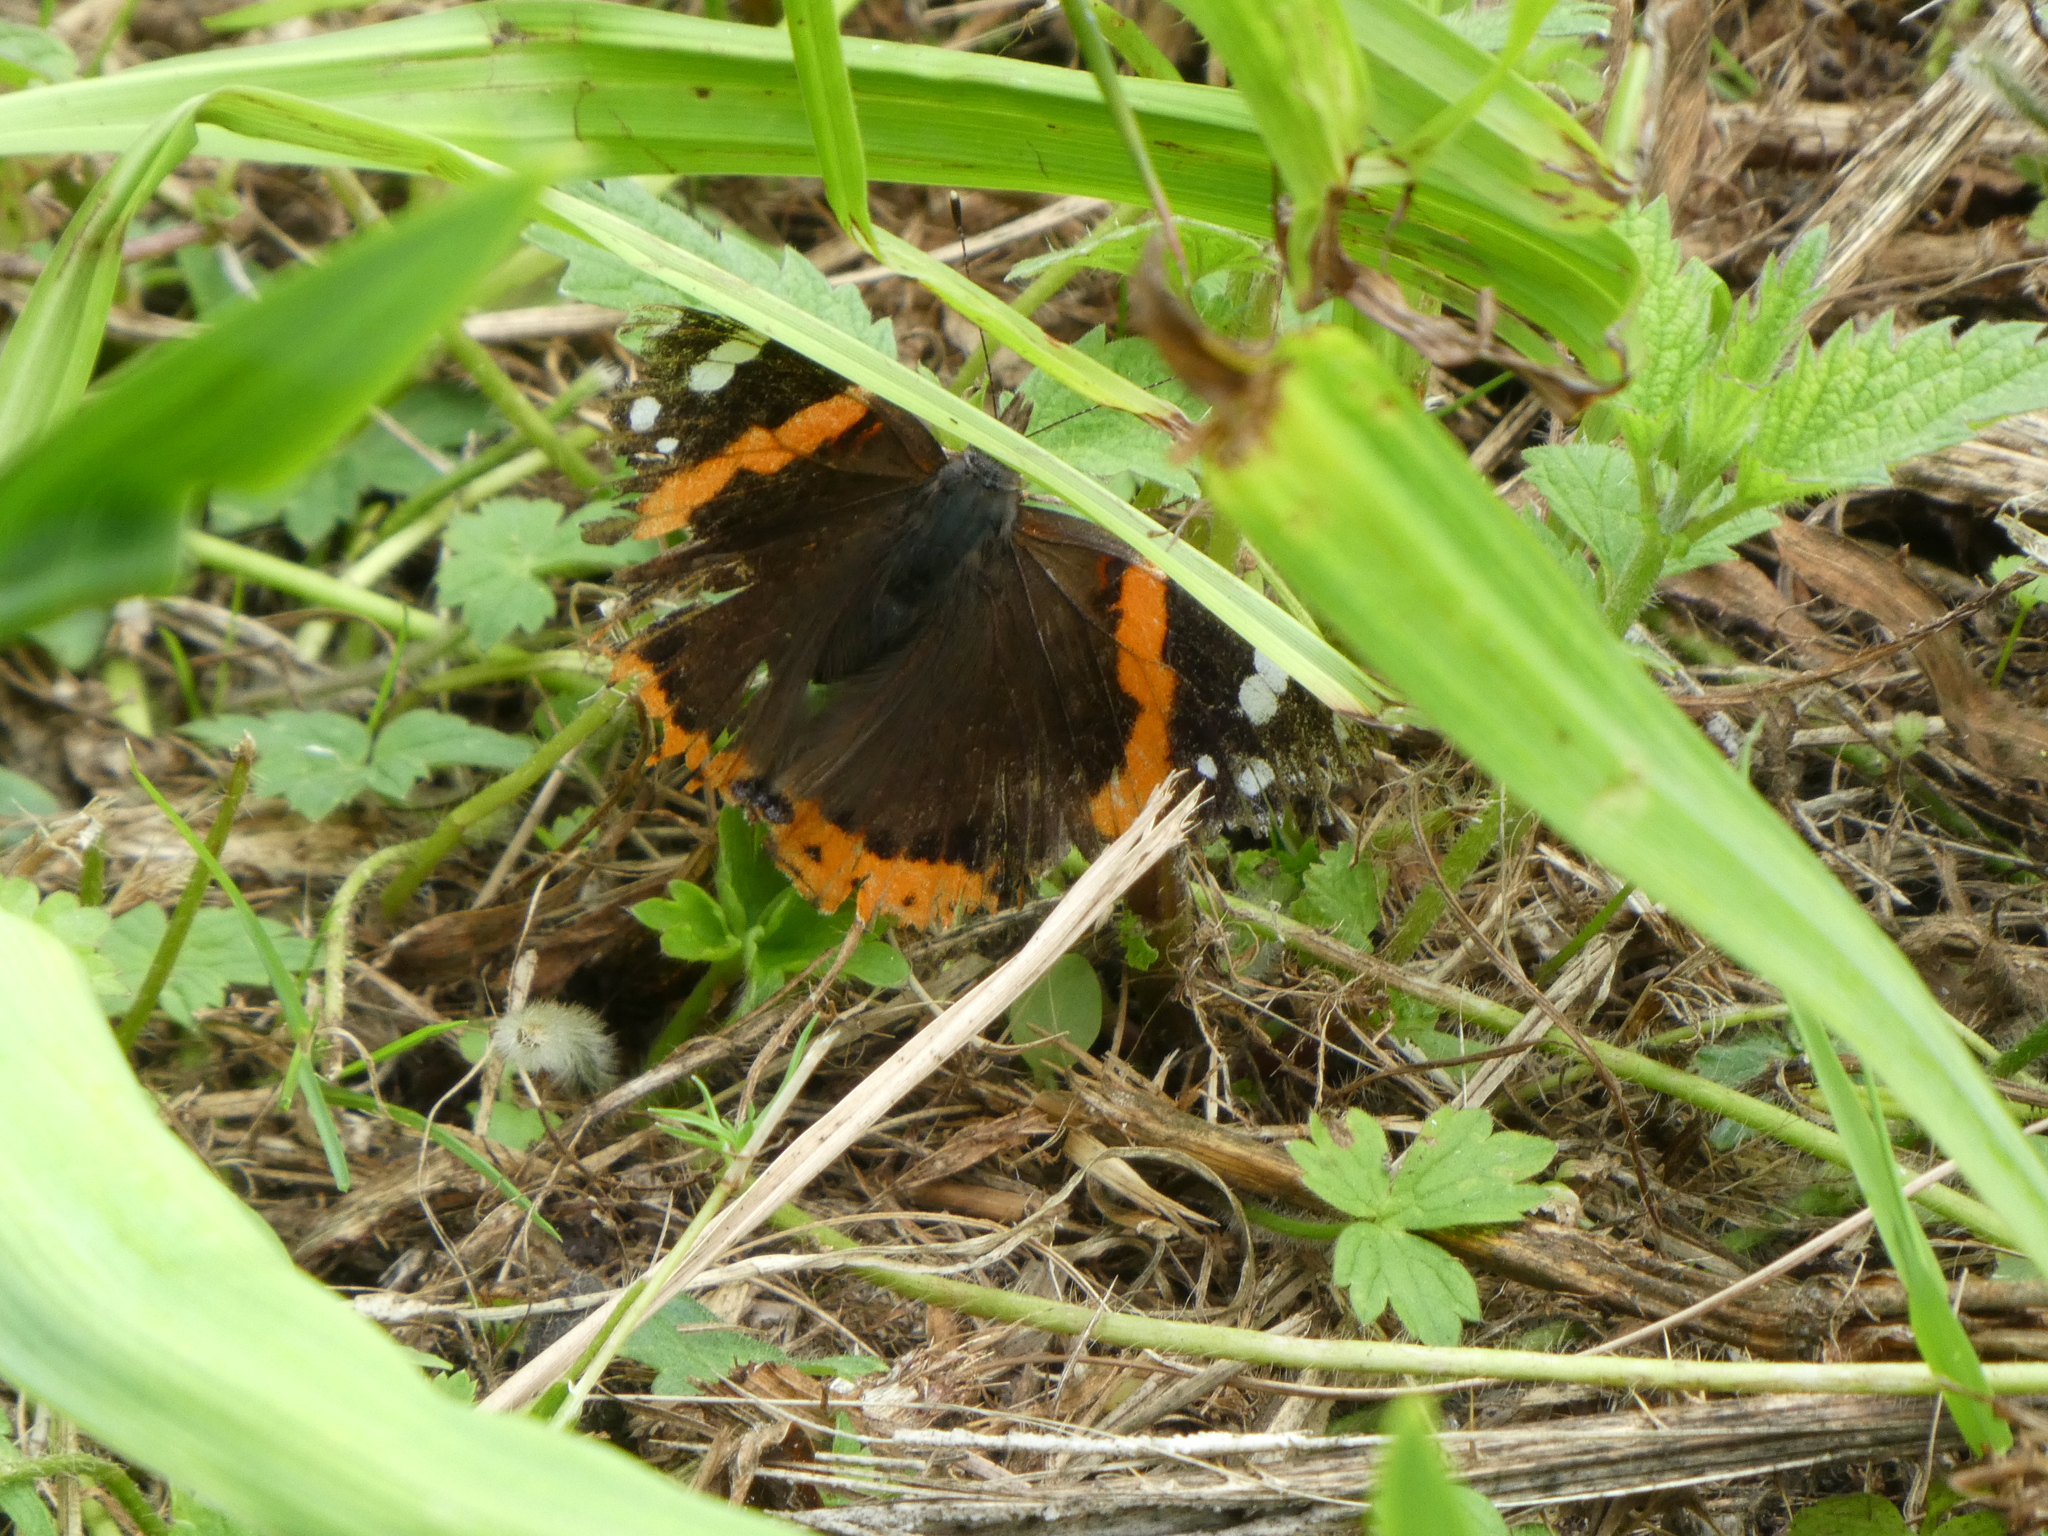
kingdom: Animalia
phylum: Arthropoda
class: Insecta
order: Lepidoptera
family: Nymphalidae
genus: Vanessa
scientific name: Vanessa atalanta
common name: Red admiral
